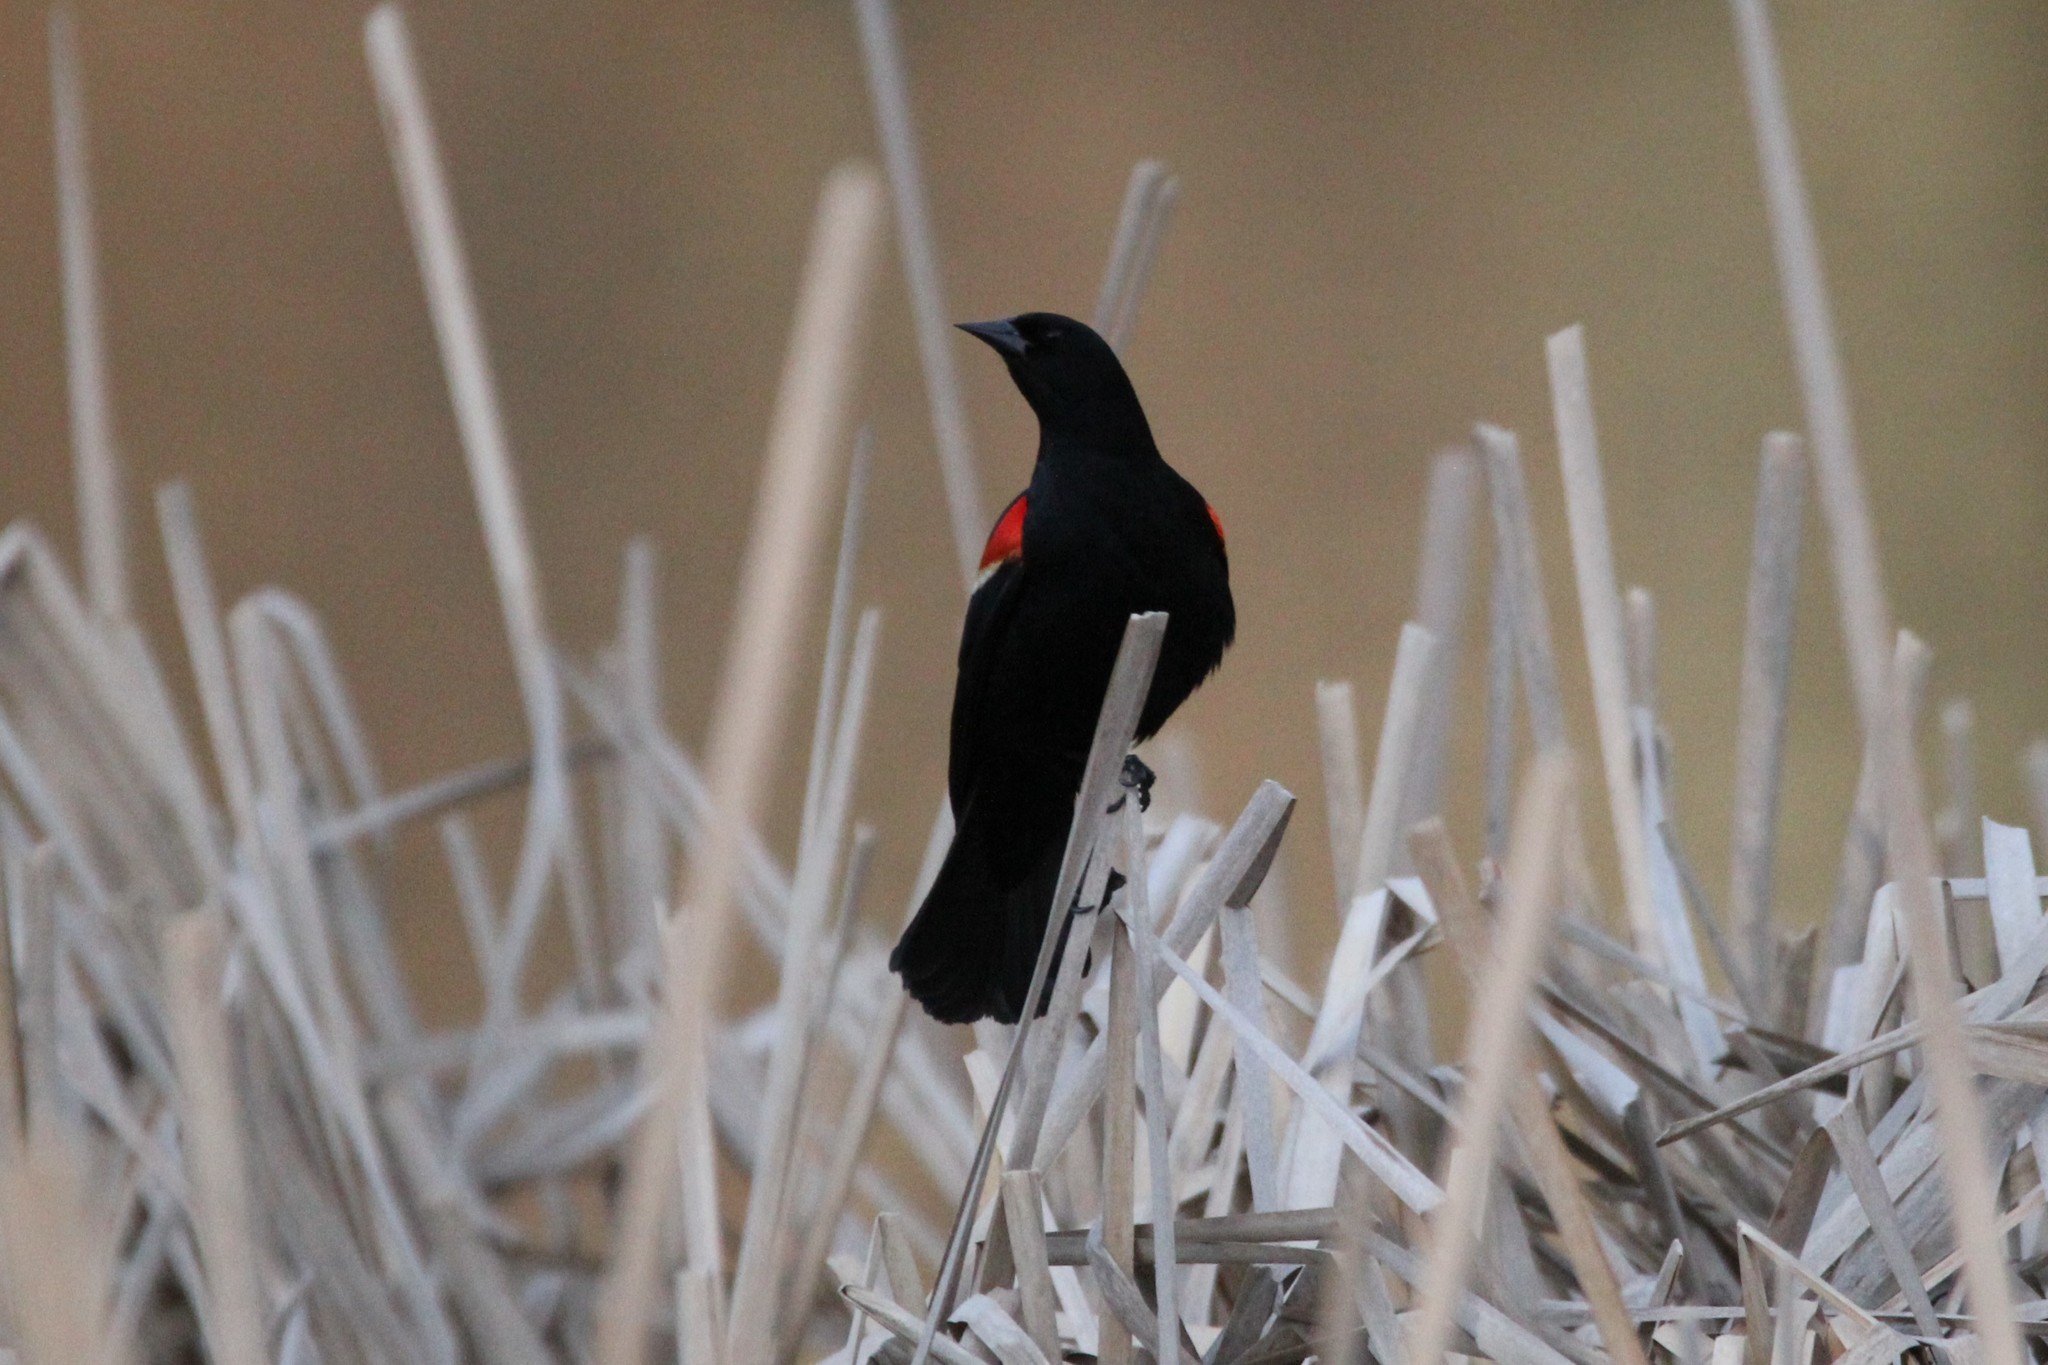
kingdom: Animalia
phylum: Chordata
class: Aves
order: Passeriformes
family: Icteridae
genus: Agelaius
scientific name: Agelaius phoeniceus
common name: Red-winged blackbird
